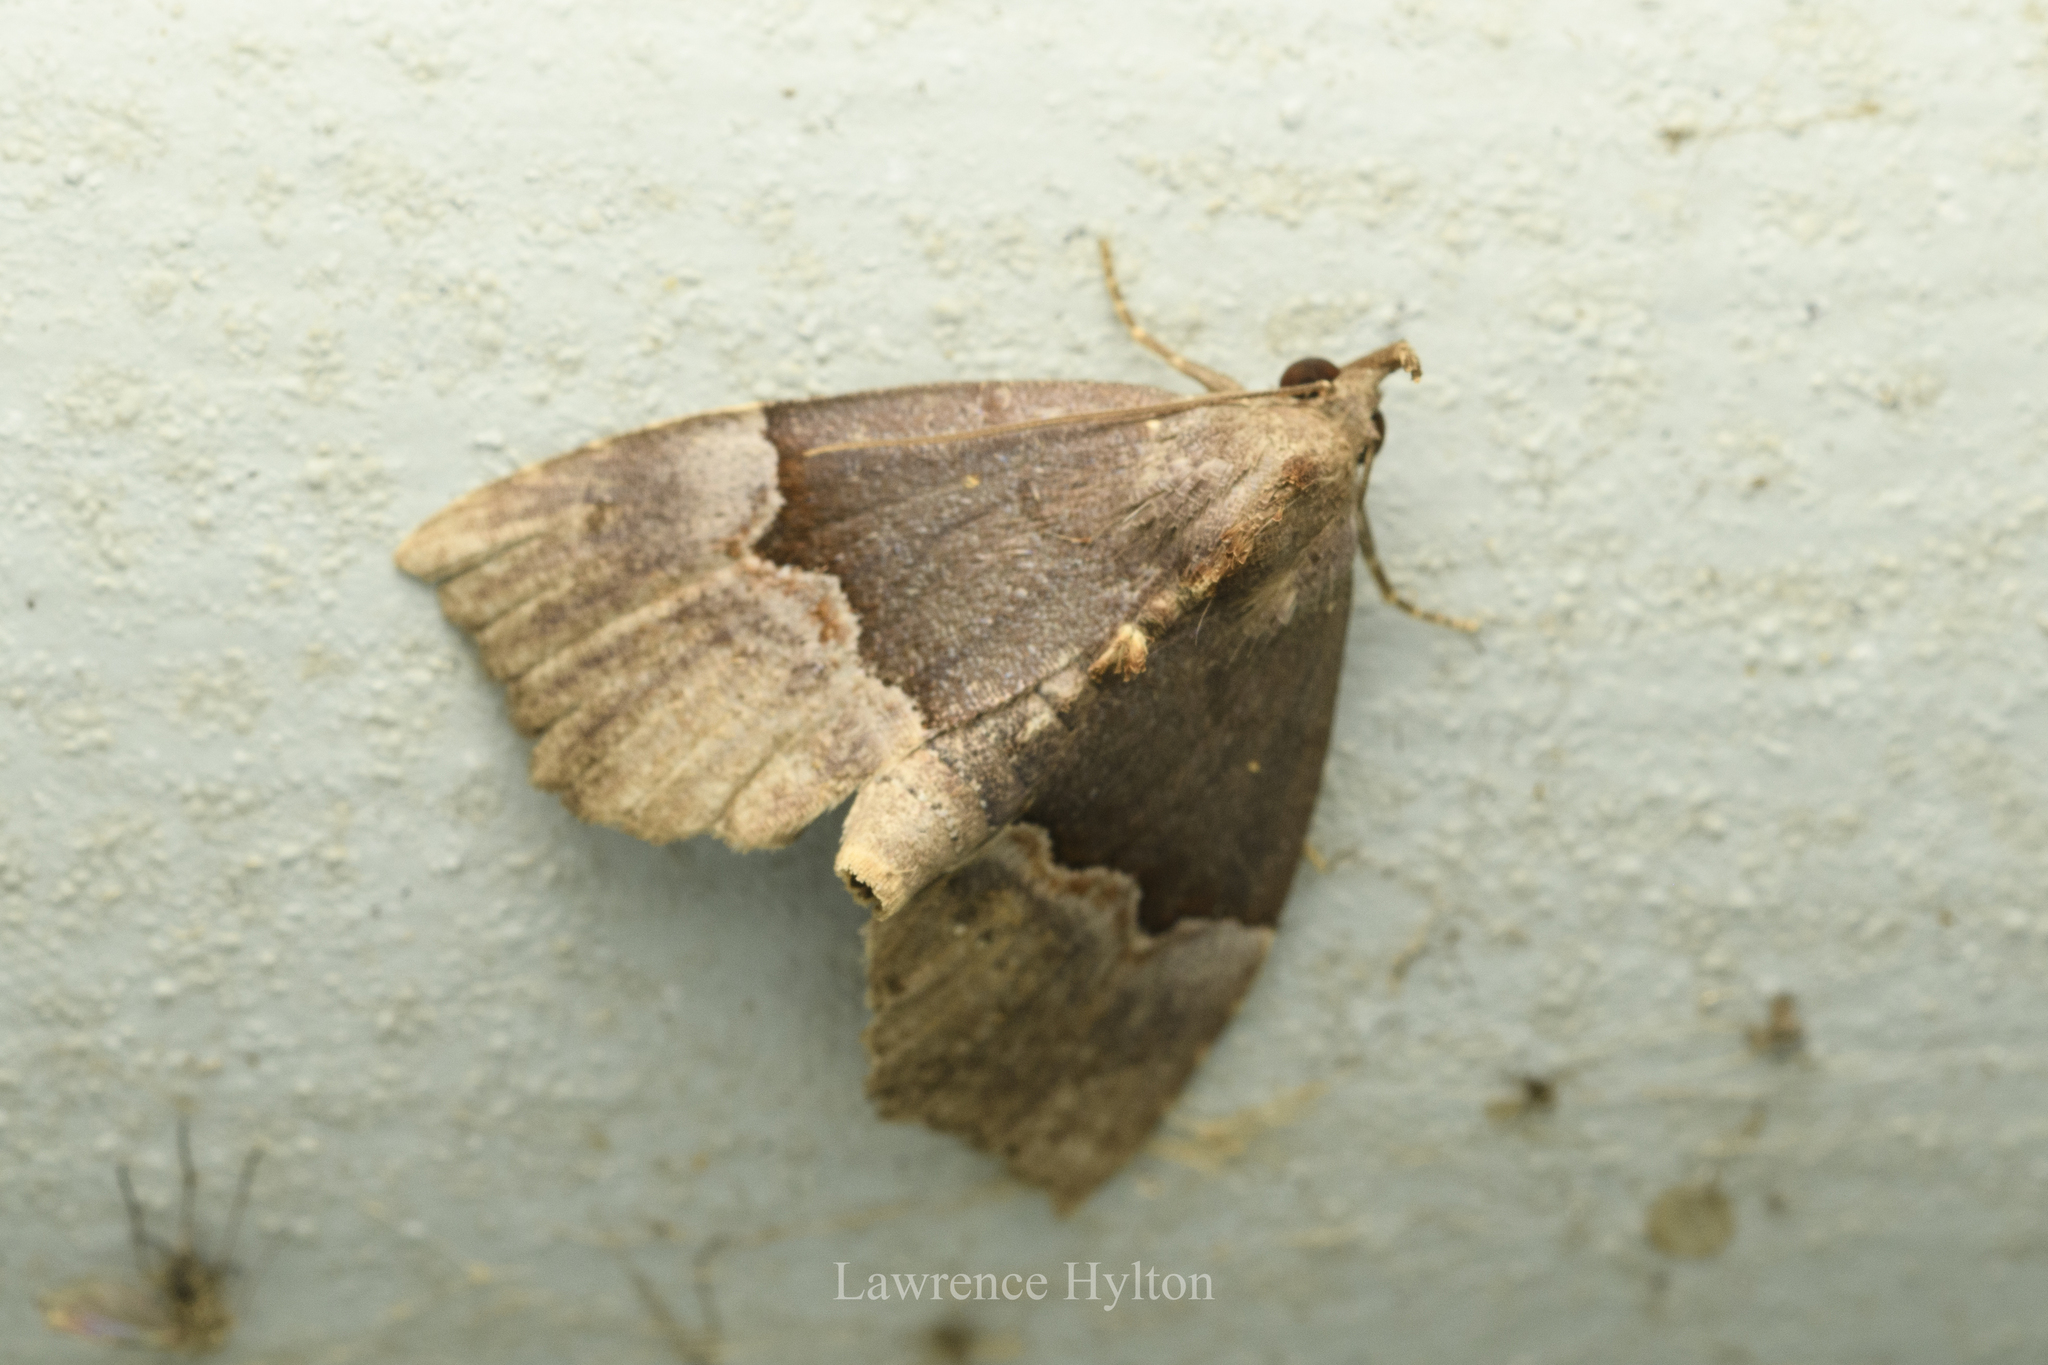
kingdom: Animalia
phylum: Arthropoda
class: Insecta
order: Lepidoptera
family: Noctuidae
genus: Ruttenstorferia
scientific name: Ruttenstorferia
